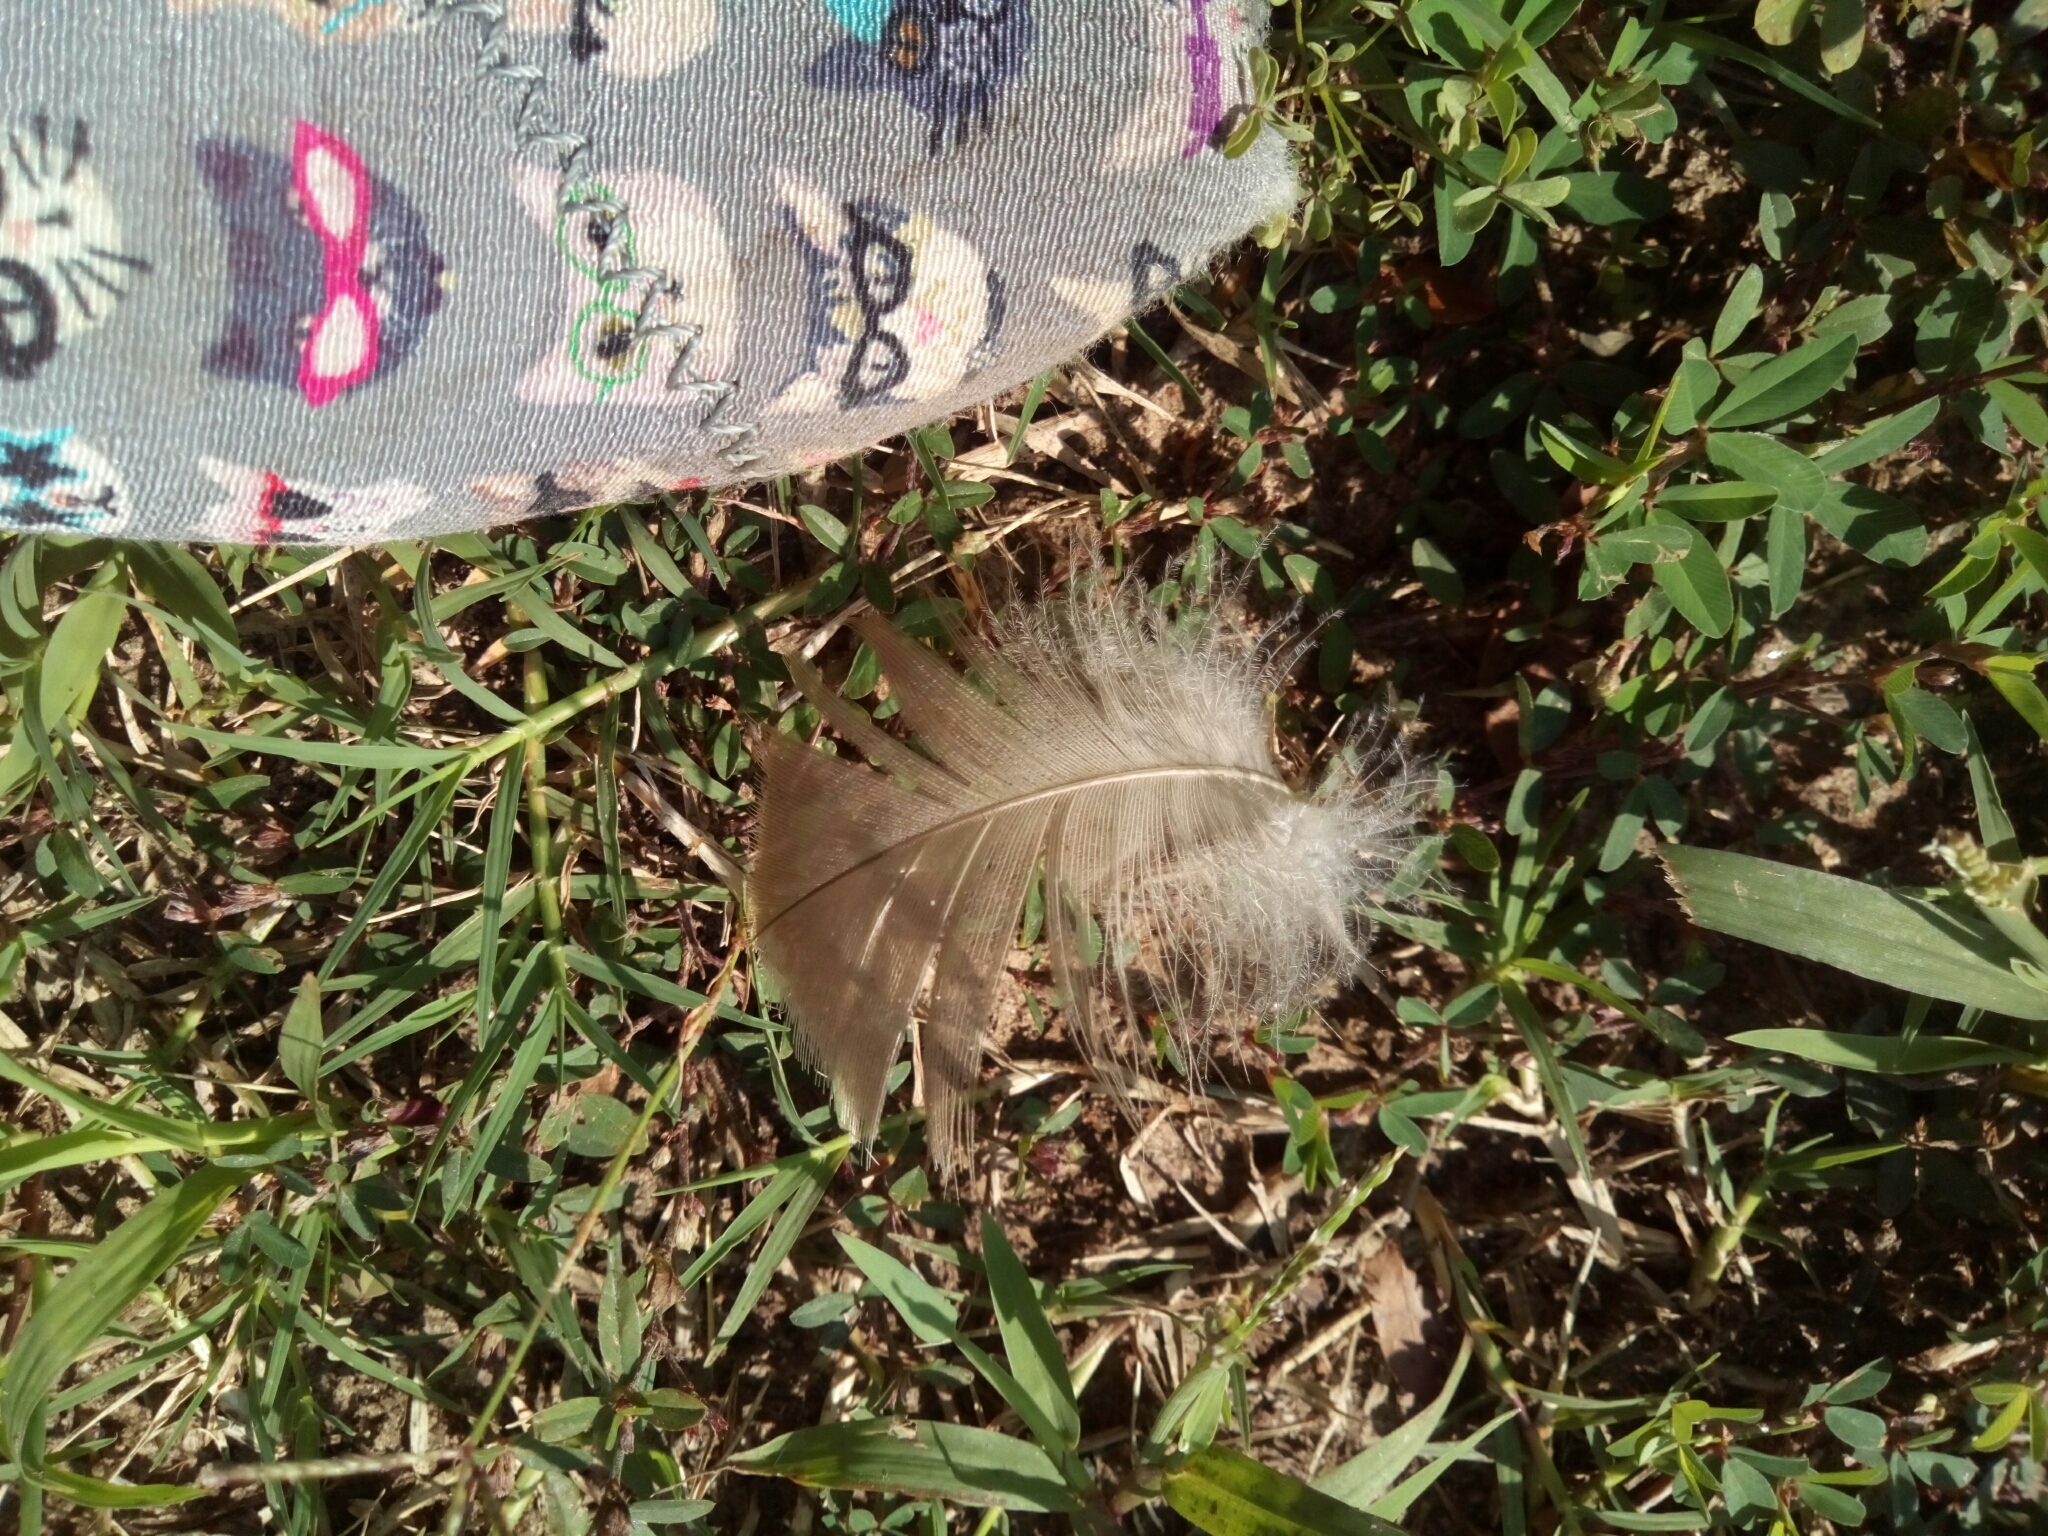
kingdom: Animalia
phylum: Chordata
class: Aves
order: Anseriformes
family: Anatidae
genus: Branta
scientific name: Branta canadensis
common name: Canada goose
